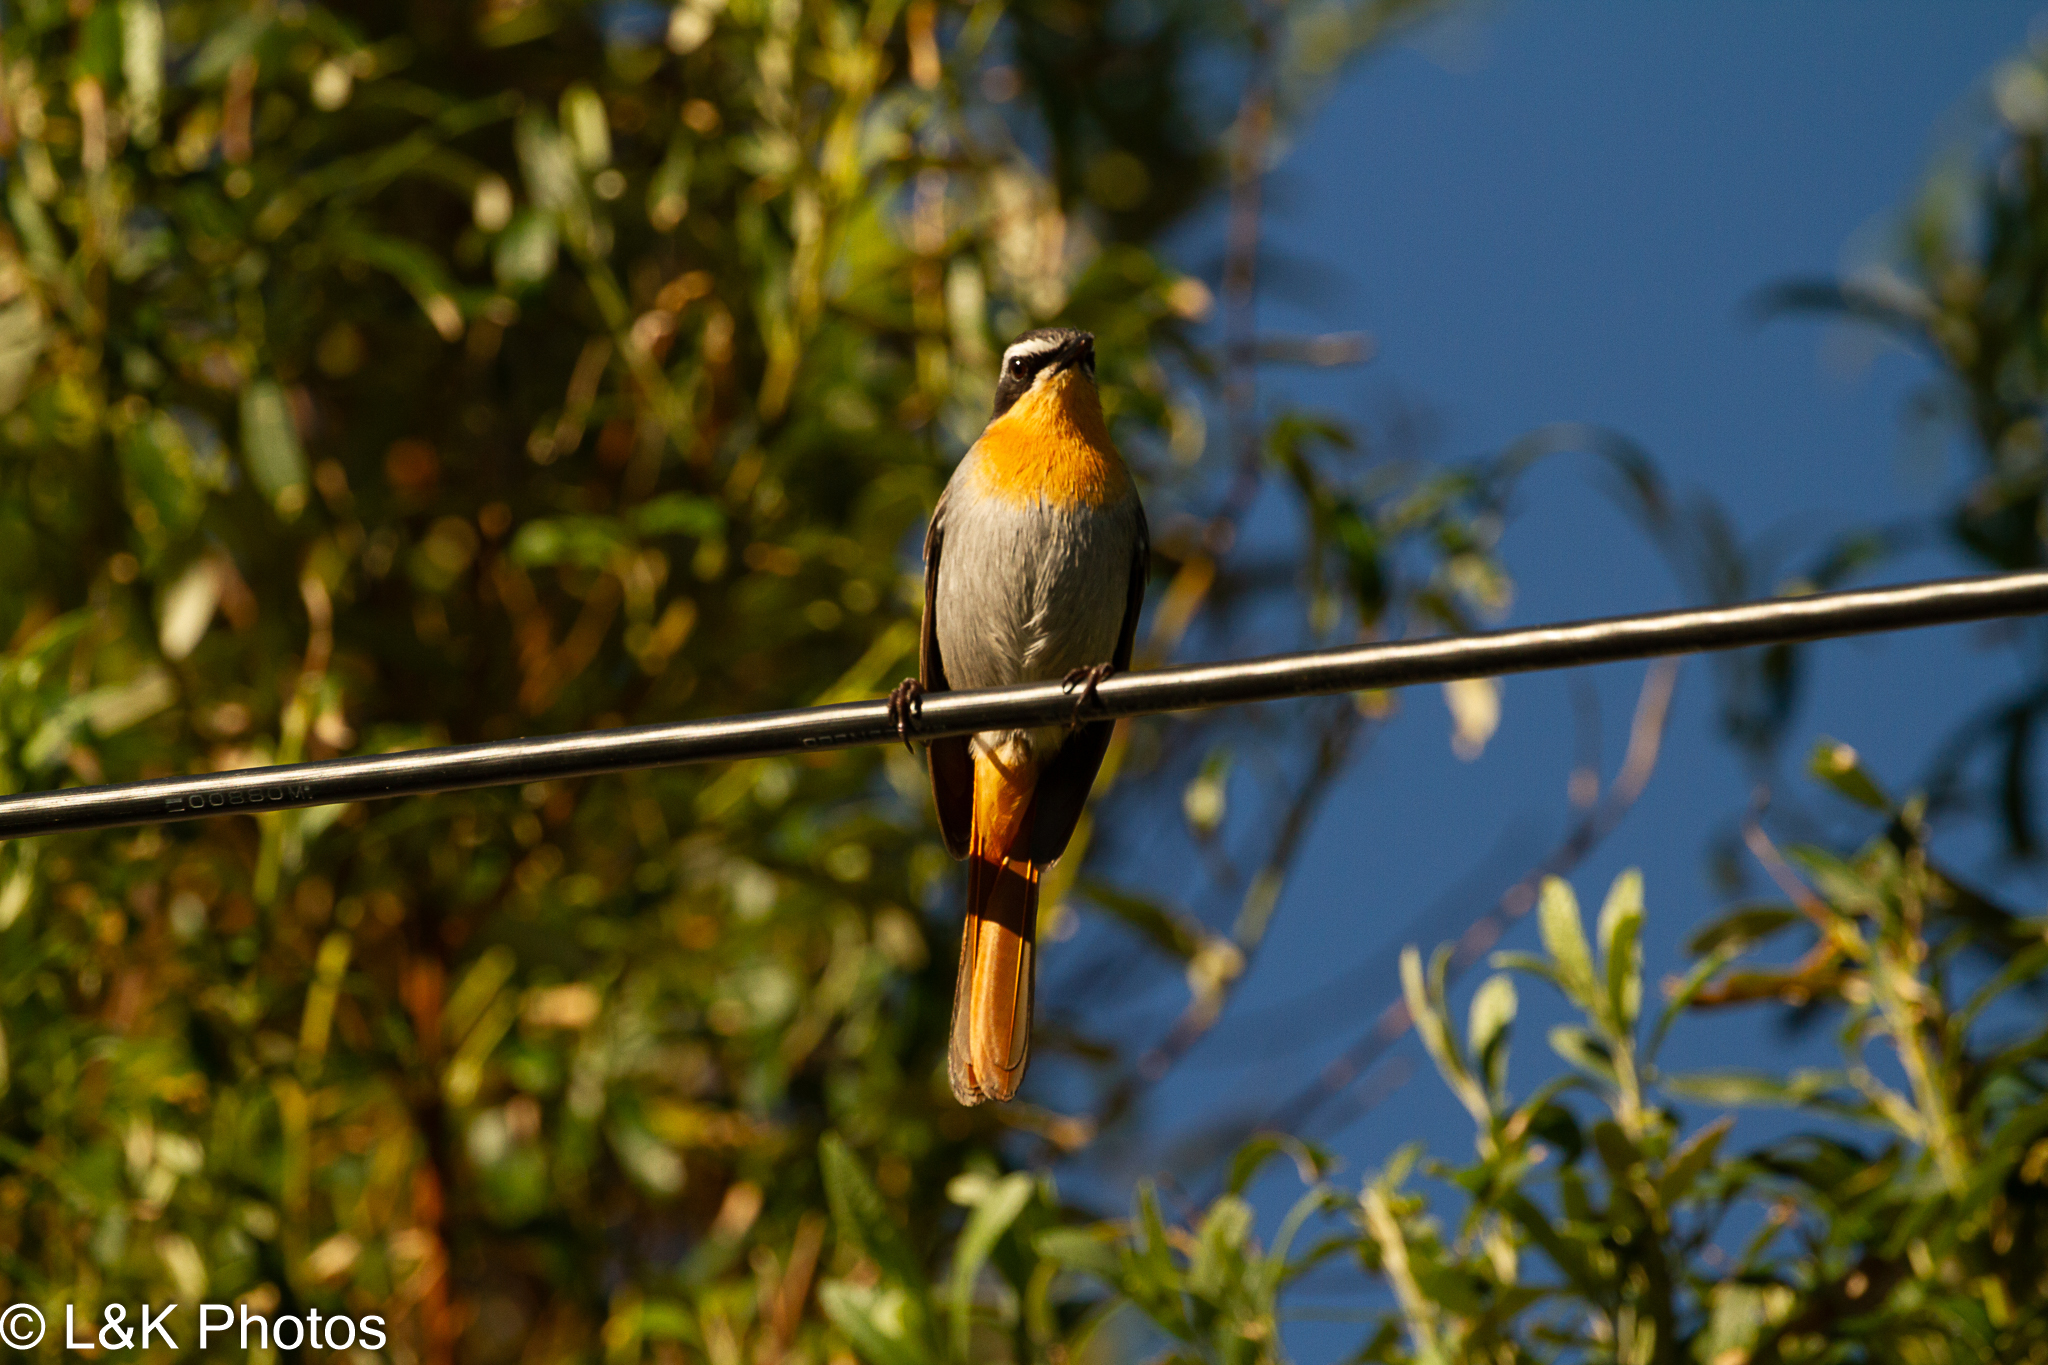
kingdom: Animalia
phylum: Chordata
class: Aves
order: Passeriformes
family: Muscicapidae
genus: Cossypha
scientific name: Cossypha caffra
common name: Cape robin-chat
